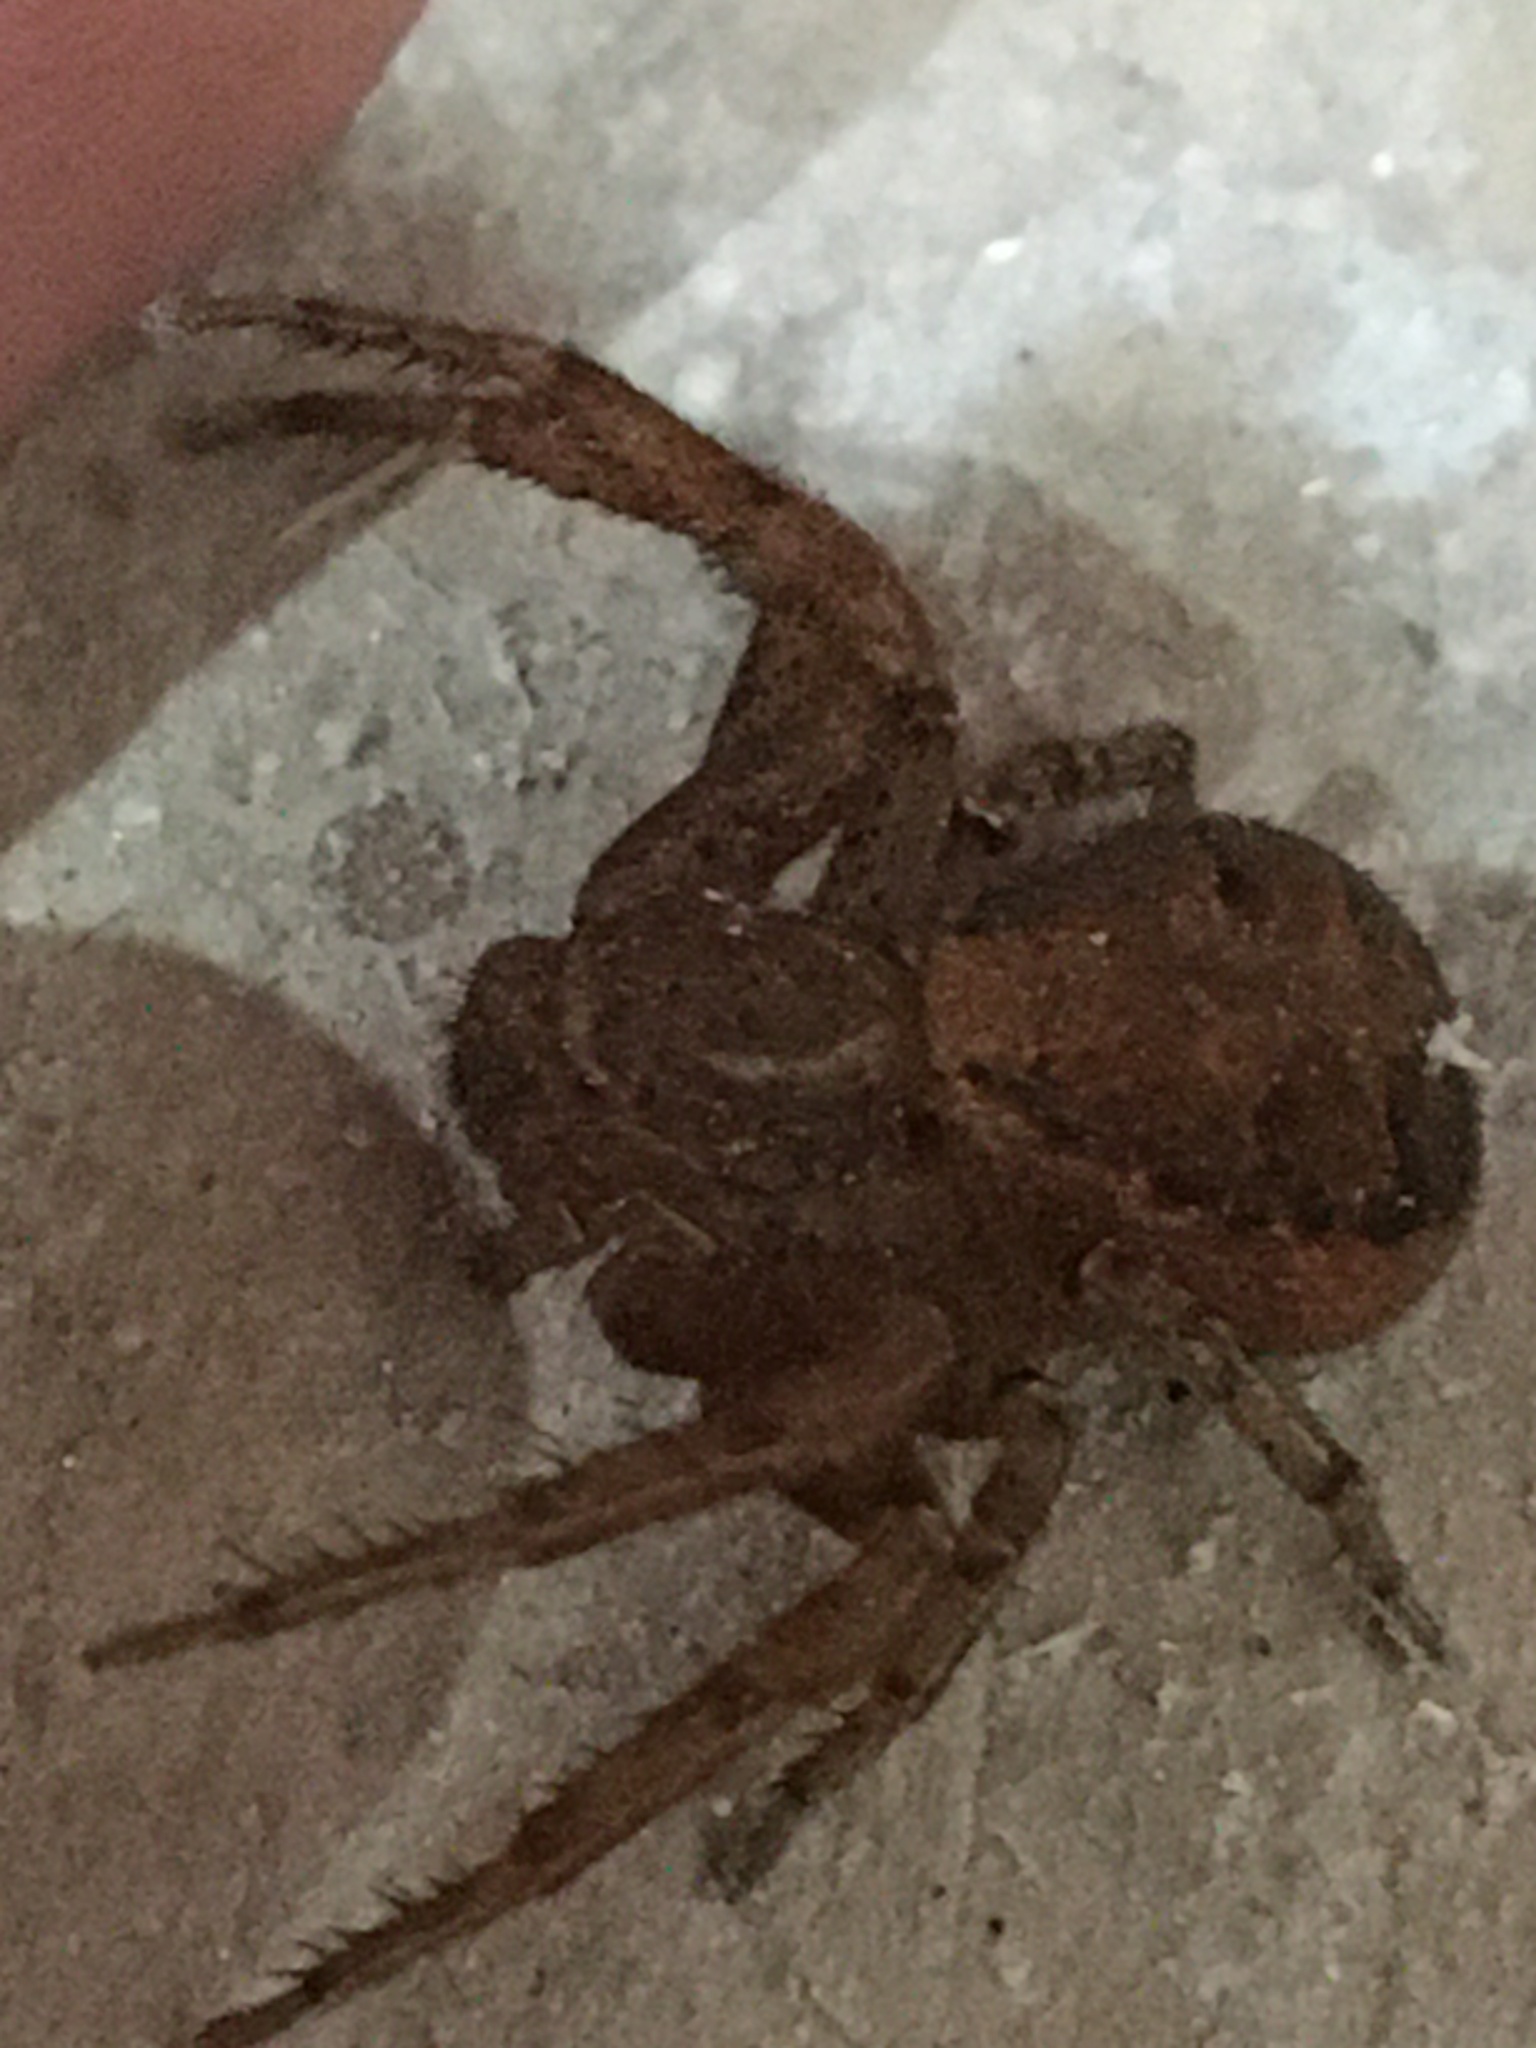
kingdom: Animalia
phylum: Arthropoda
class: Arachnida
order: Araneae
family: Thomisidae
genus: Xysticus
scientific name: Xysticus
